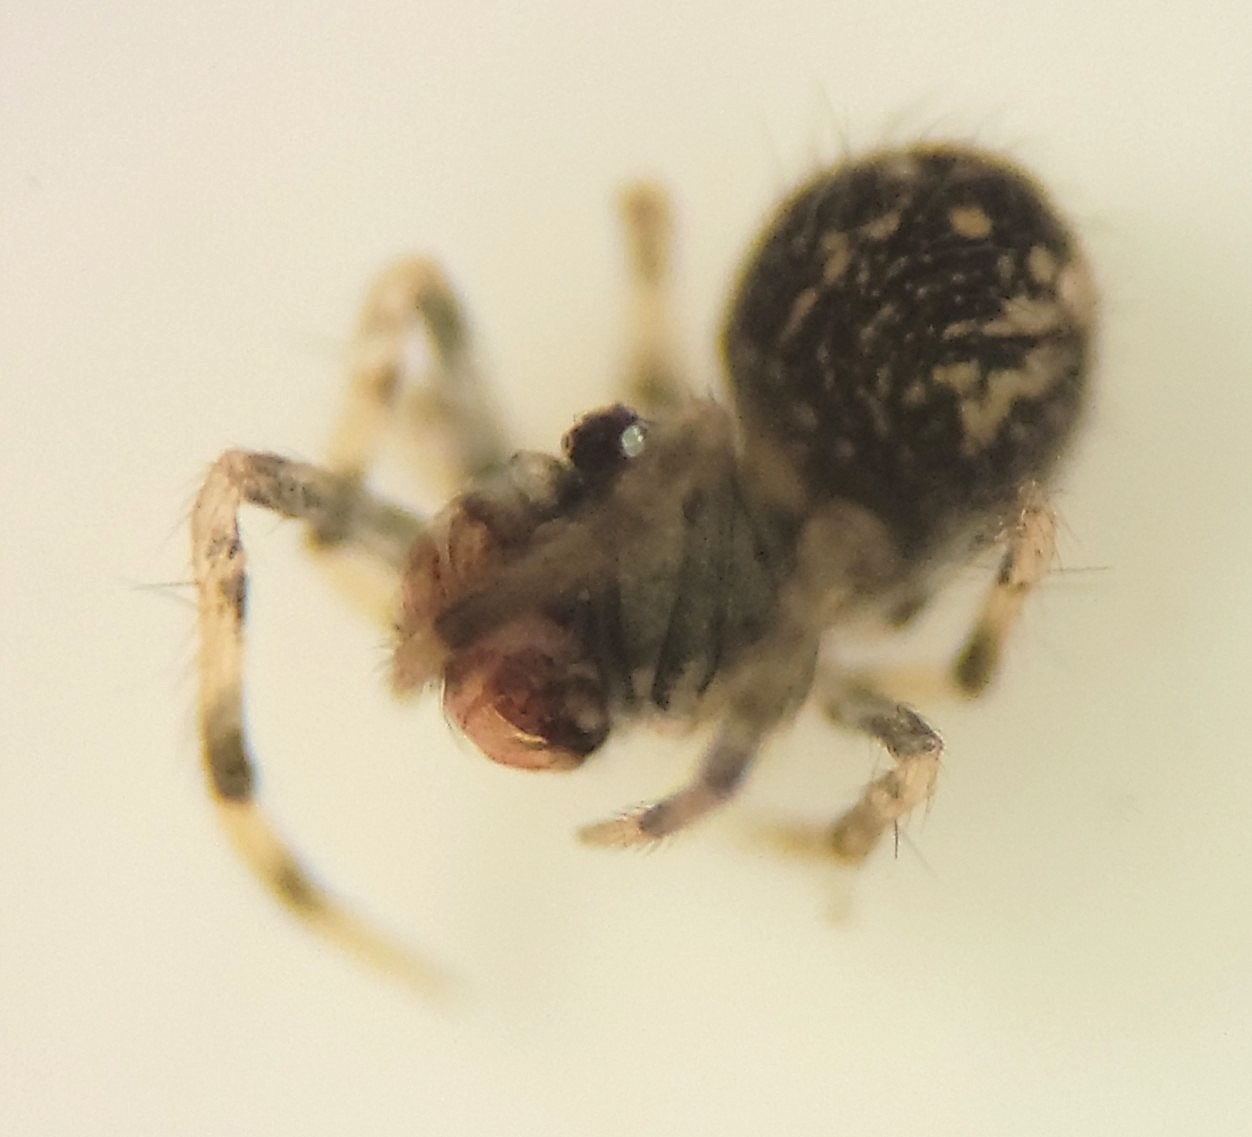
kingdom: Animalia
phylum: Arthropoda
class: Arachnida
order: Araneae
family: Mysmenidae
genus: Trogloneta
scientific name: Trogloneta paradoxa
